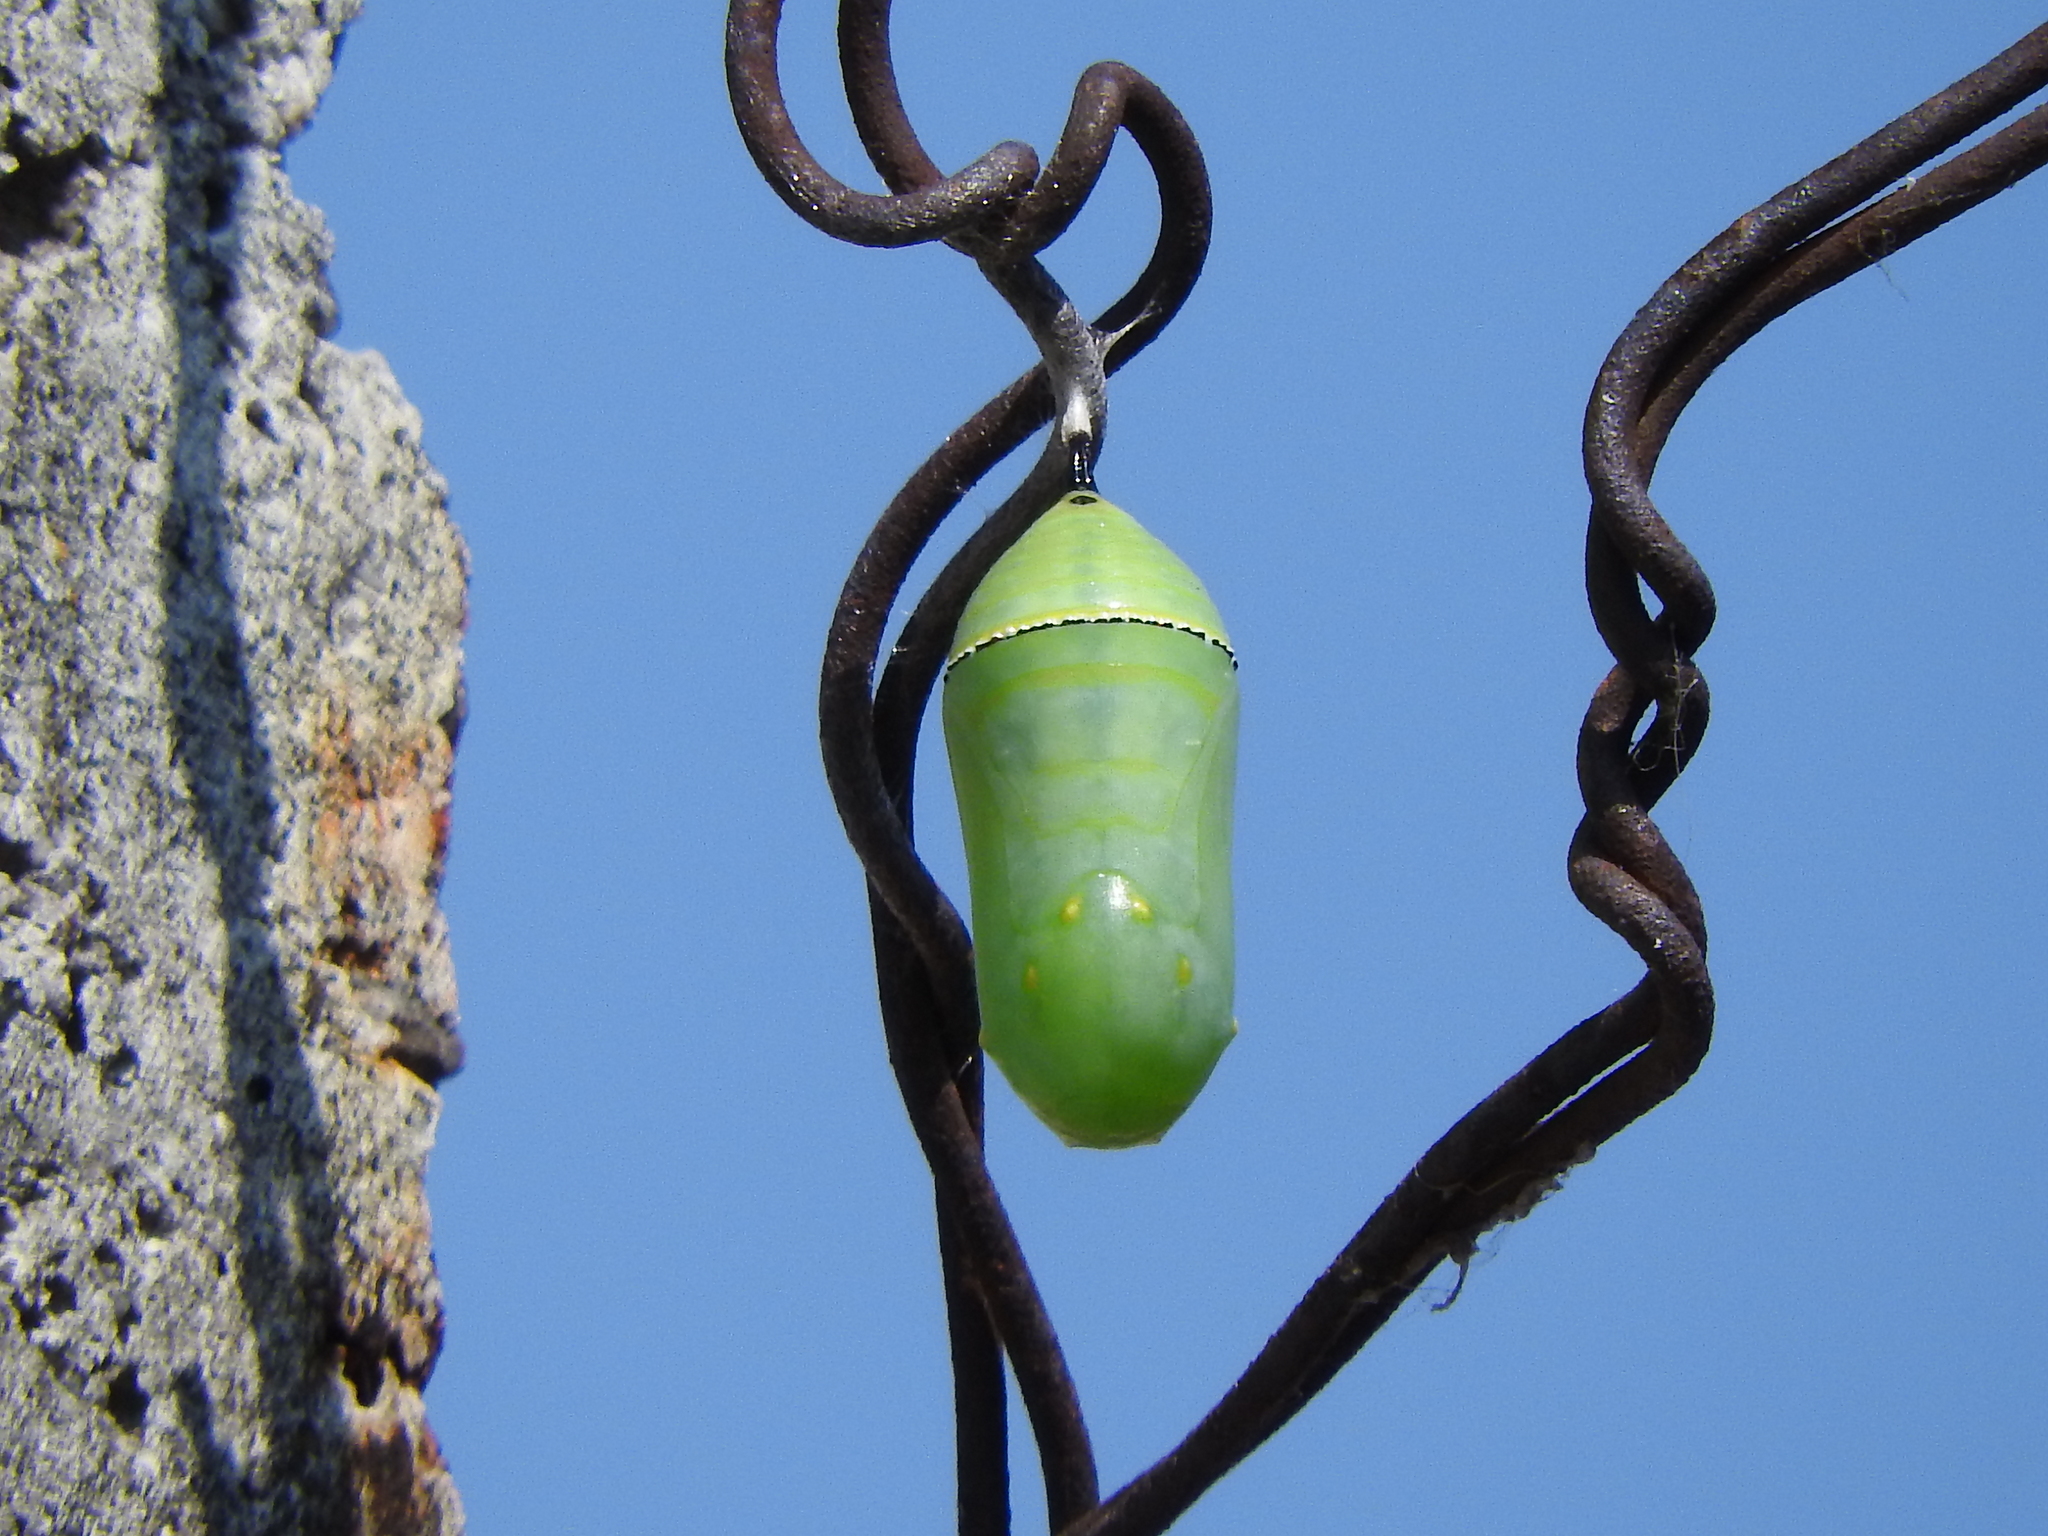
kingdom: Animalia
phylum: Arthropoda
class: Insecta
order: Lepidoptera
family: Nymphalidae
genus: Danaus
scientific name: Danaus plexippus
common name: Monarch
